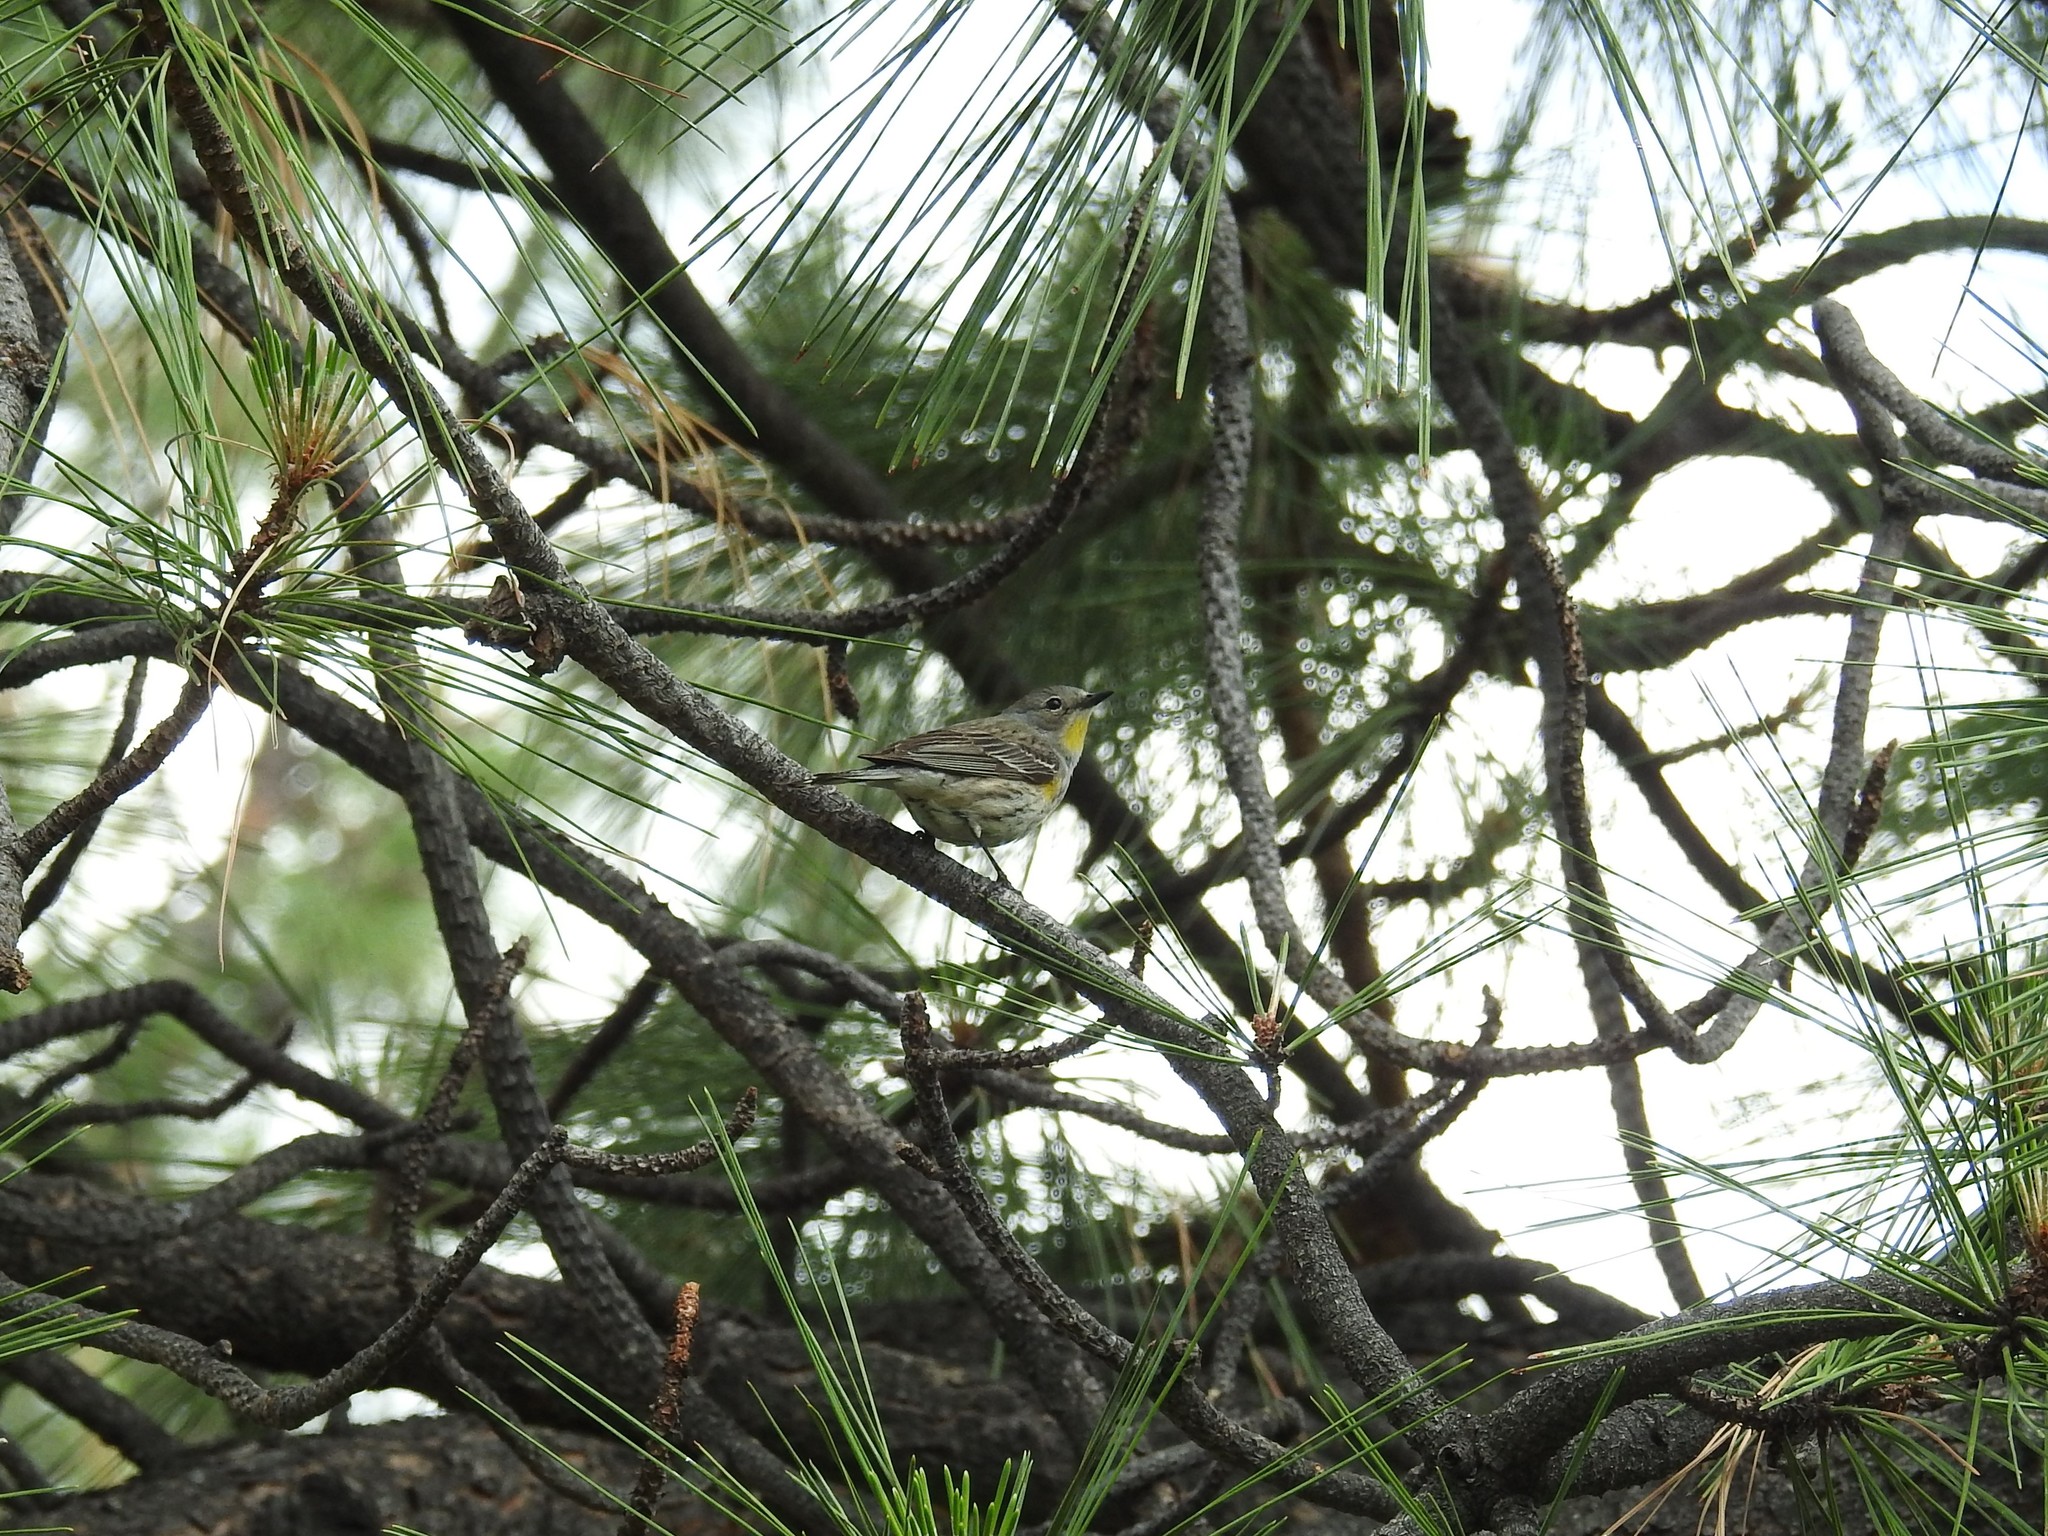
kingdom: Animalia
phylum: Chordata
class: Aves
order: Passeriformes
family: Parulidae
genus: Setophaga
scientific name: Setophaga coronata
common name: Myrtle warbler
